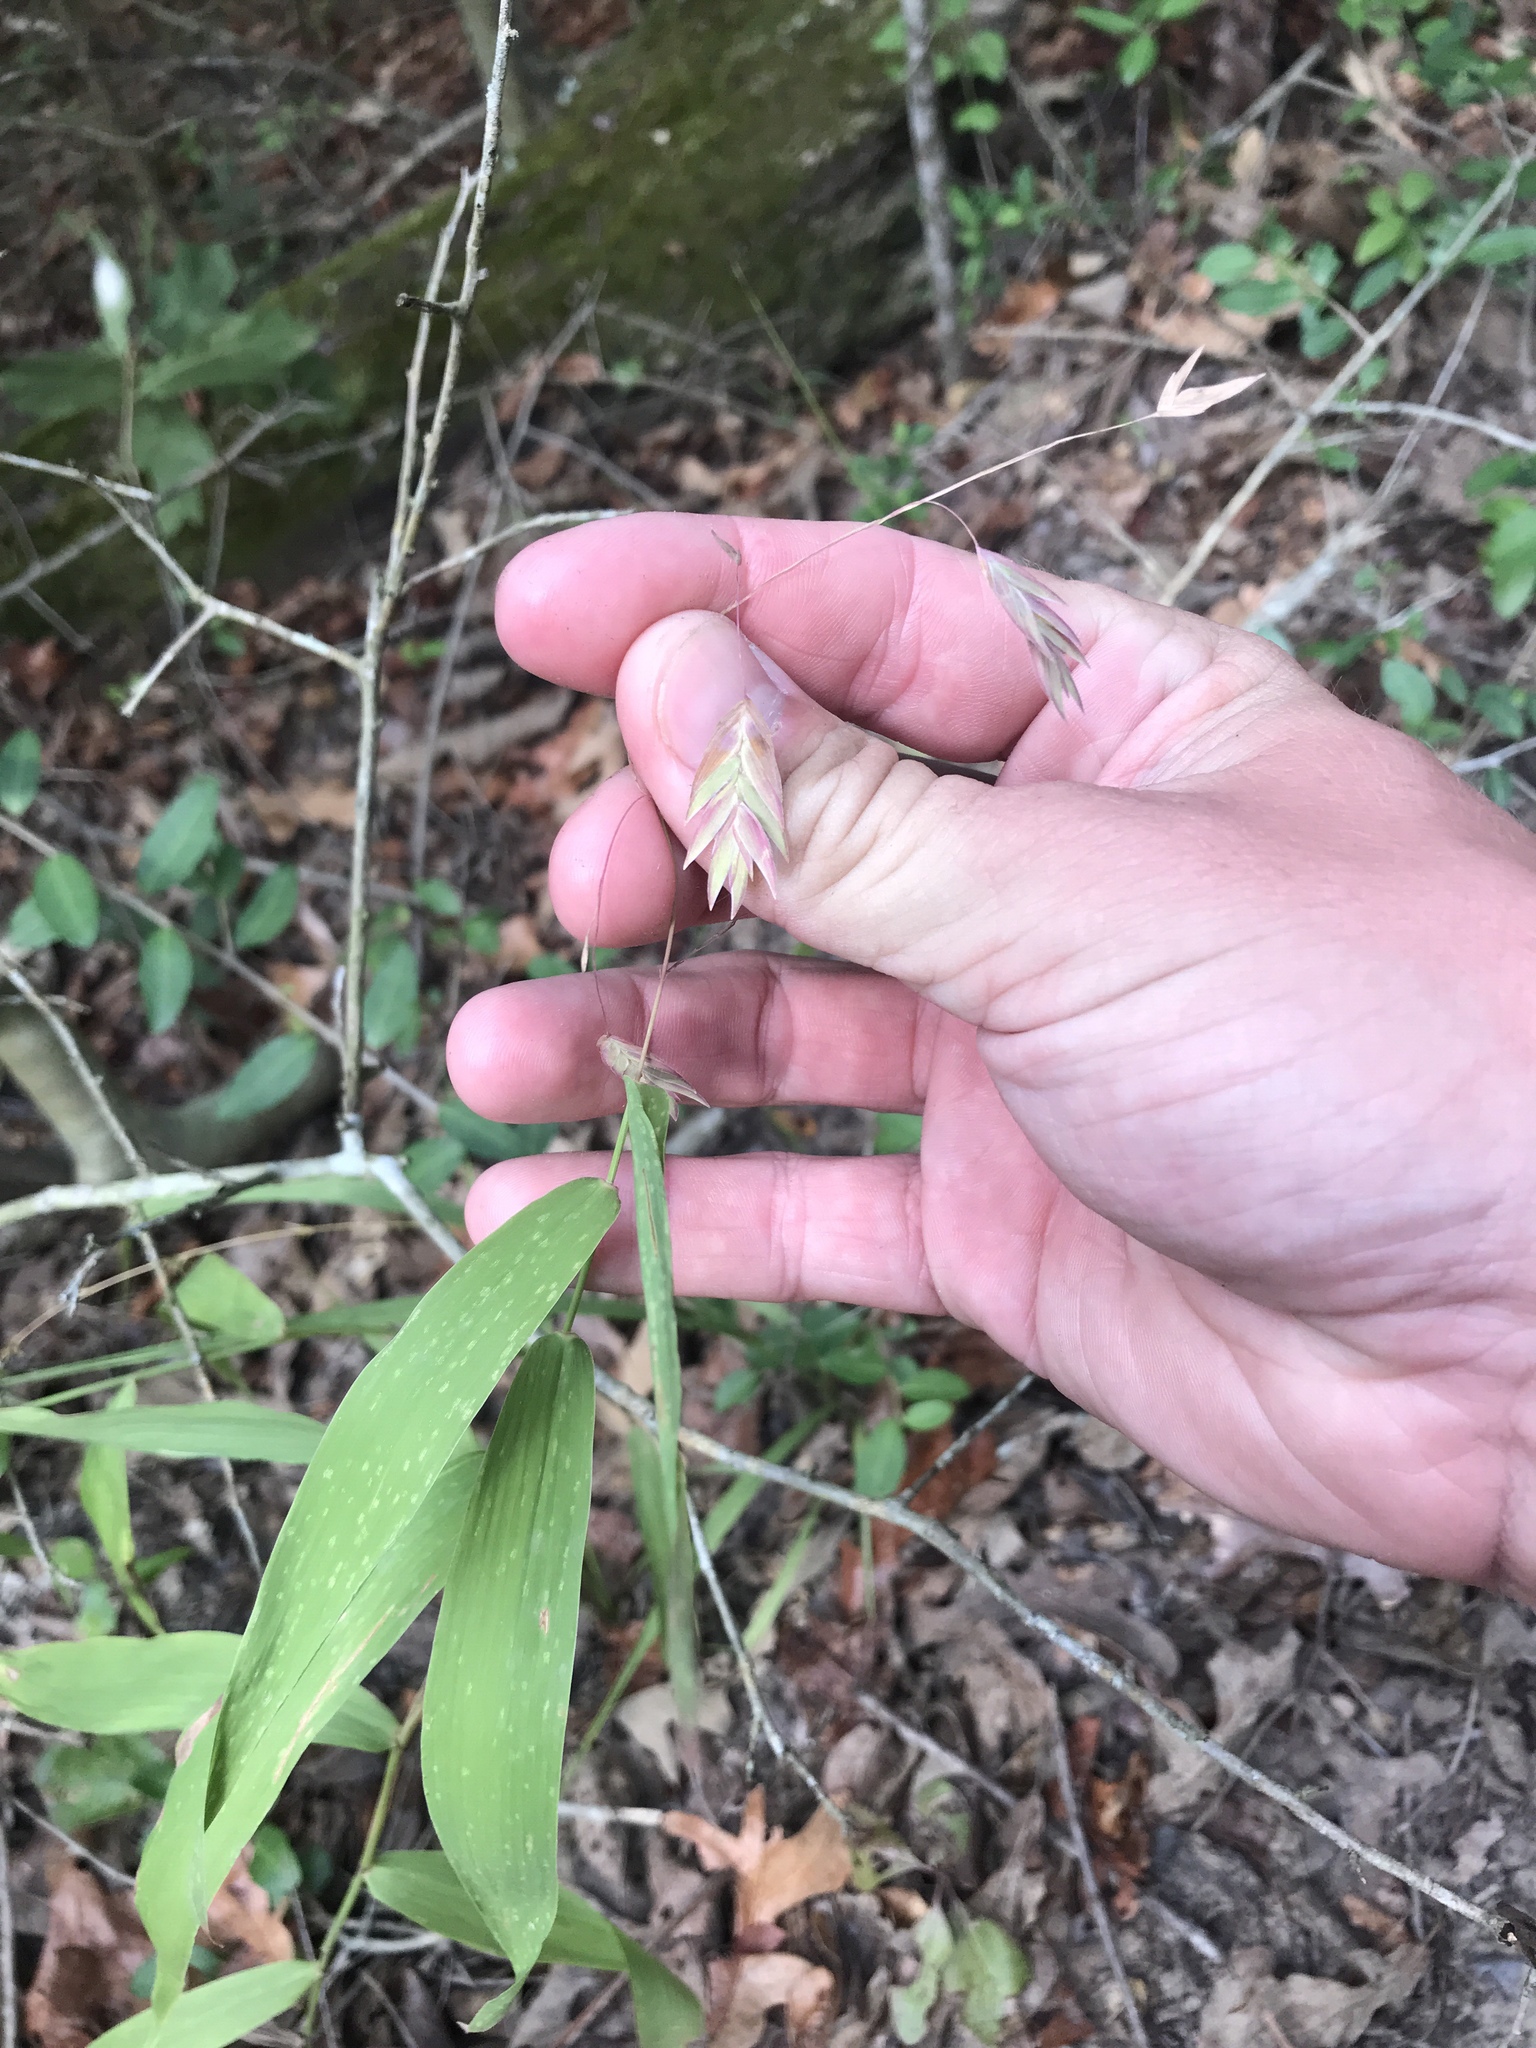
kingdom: Plantae
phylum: Tracheophyta
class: Liliopsida
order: Poales
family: Poaceae
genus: Chasmanthium
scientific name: Chasmanthium latifolium
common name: Broad-leaved chasmanthium
